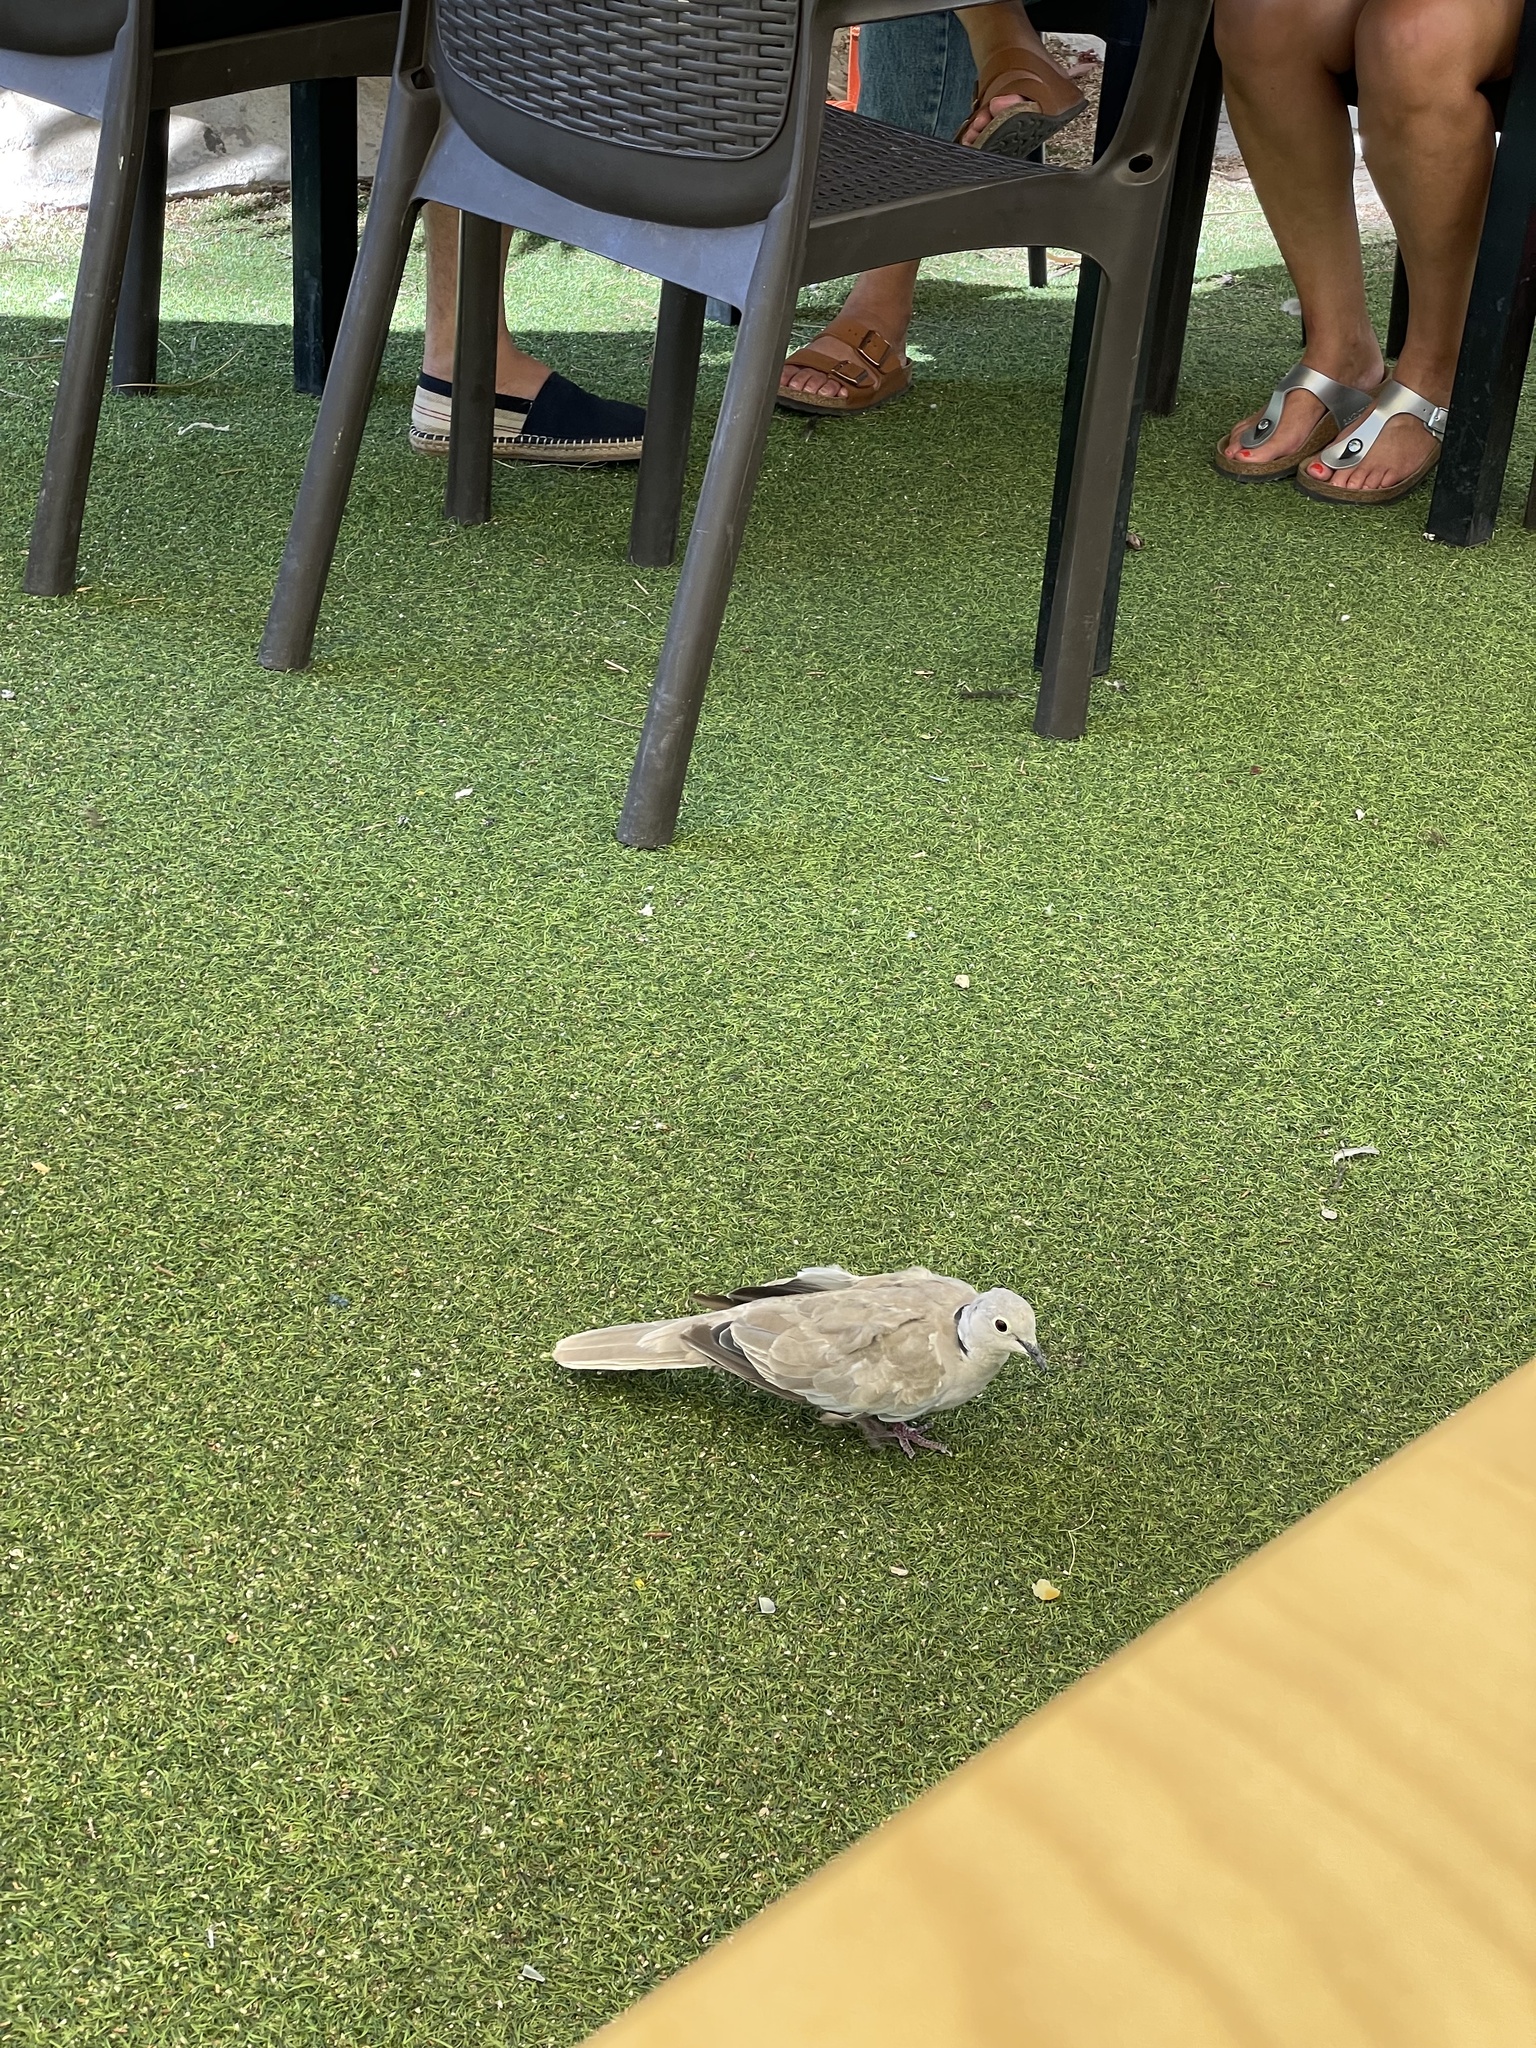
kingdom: Animalia
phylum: Chordata
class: Aves
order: Columbiformes
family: Columbidae
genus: Streptopelia
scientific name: Streptopelia decaocto
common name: Eurasian collared dove
